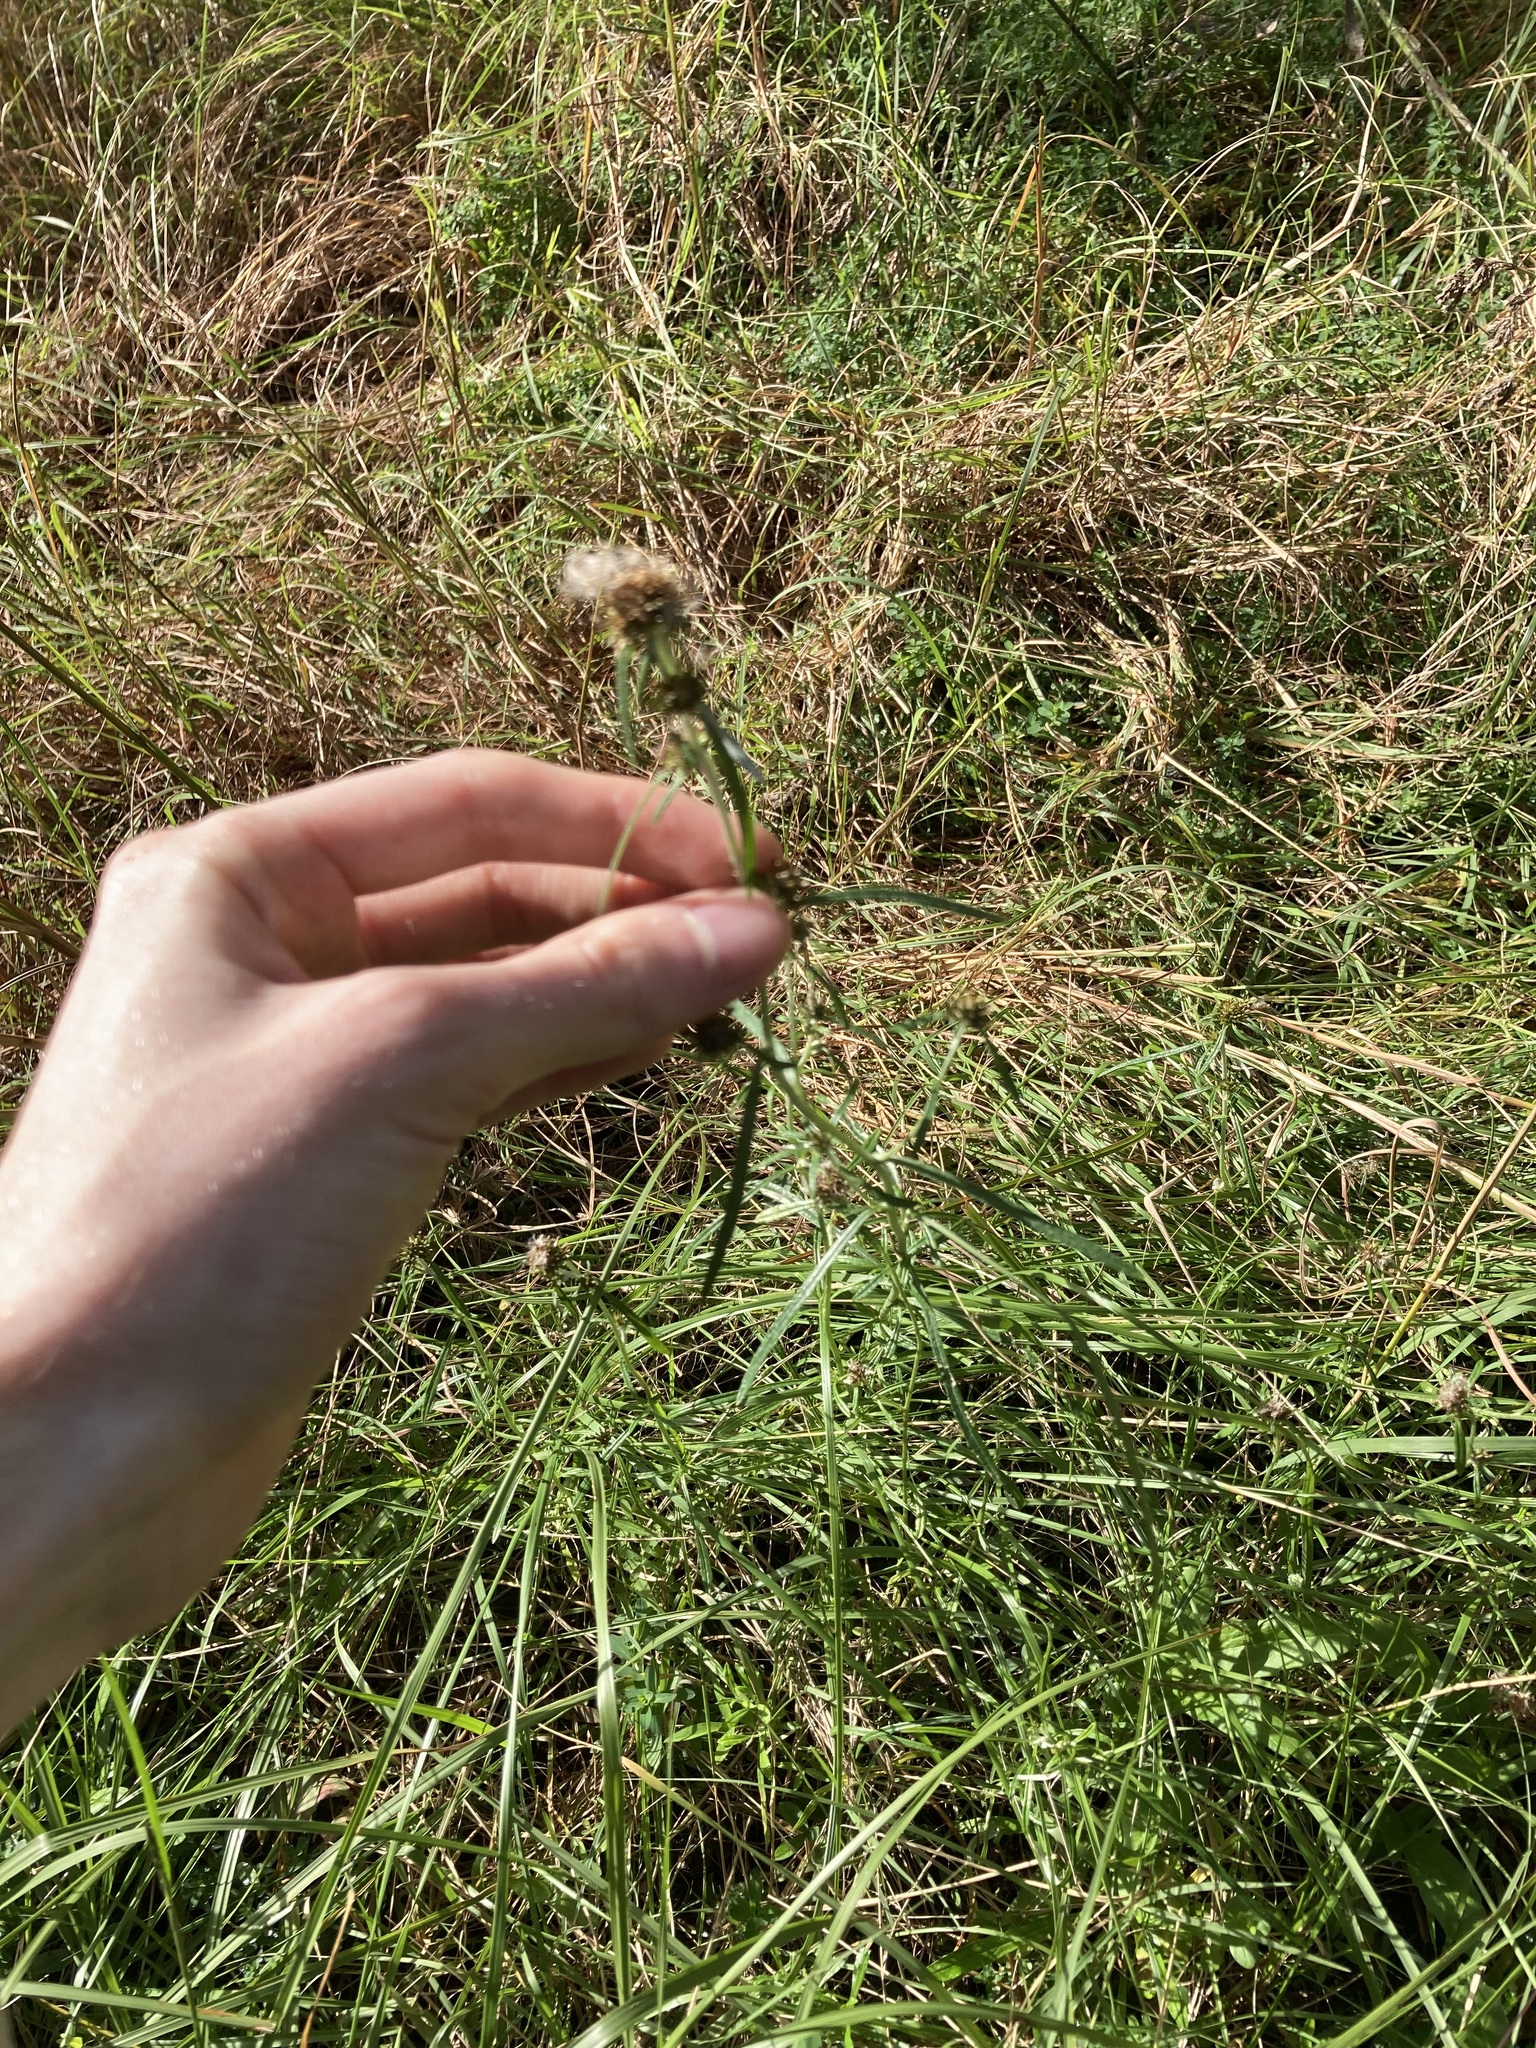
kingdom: Plantae
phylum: Tracheophyta
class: Magnoliopsida
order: Asterales
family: Asteraceae
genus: Euchiton
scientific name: Euchiton sphaericus
